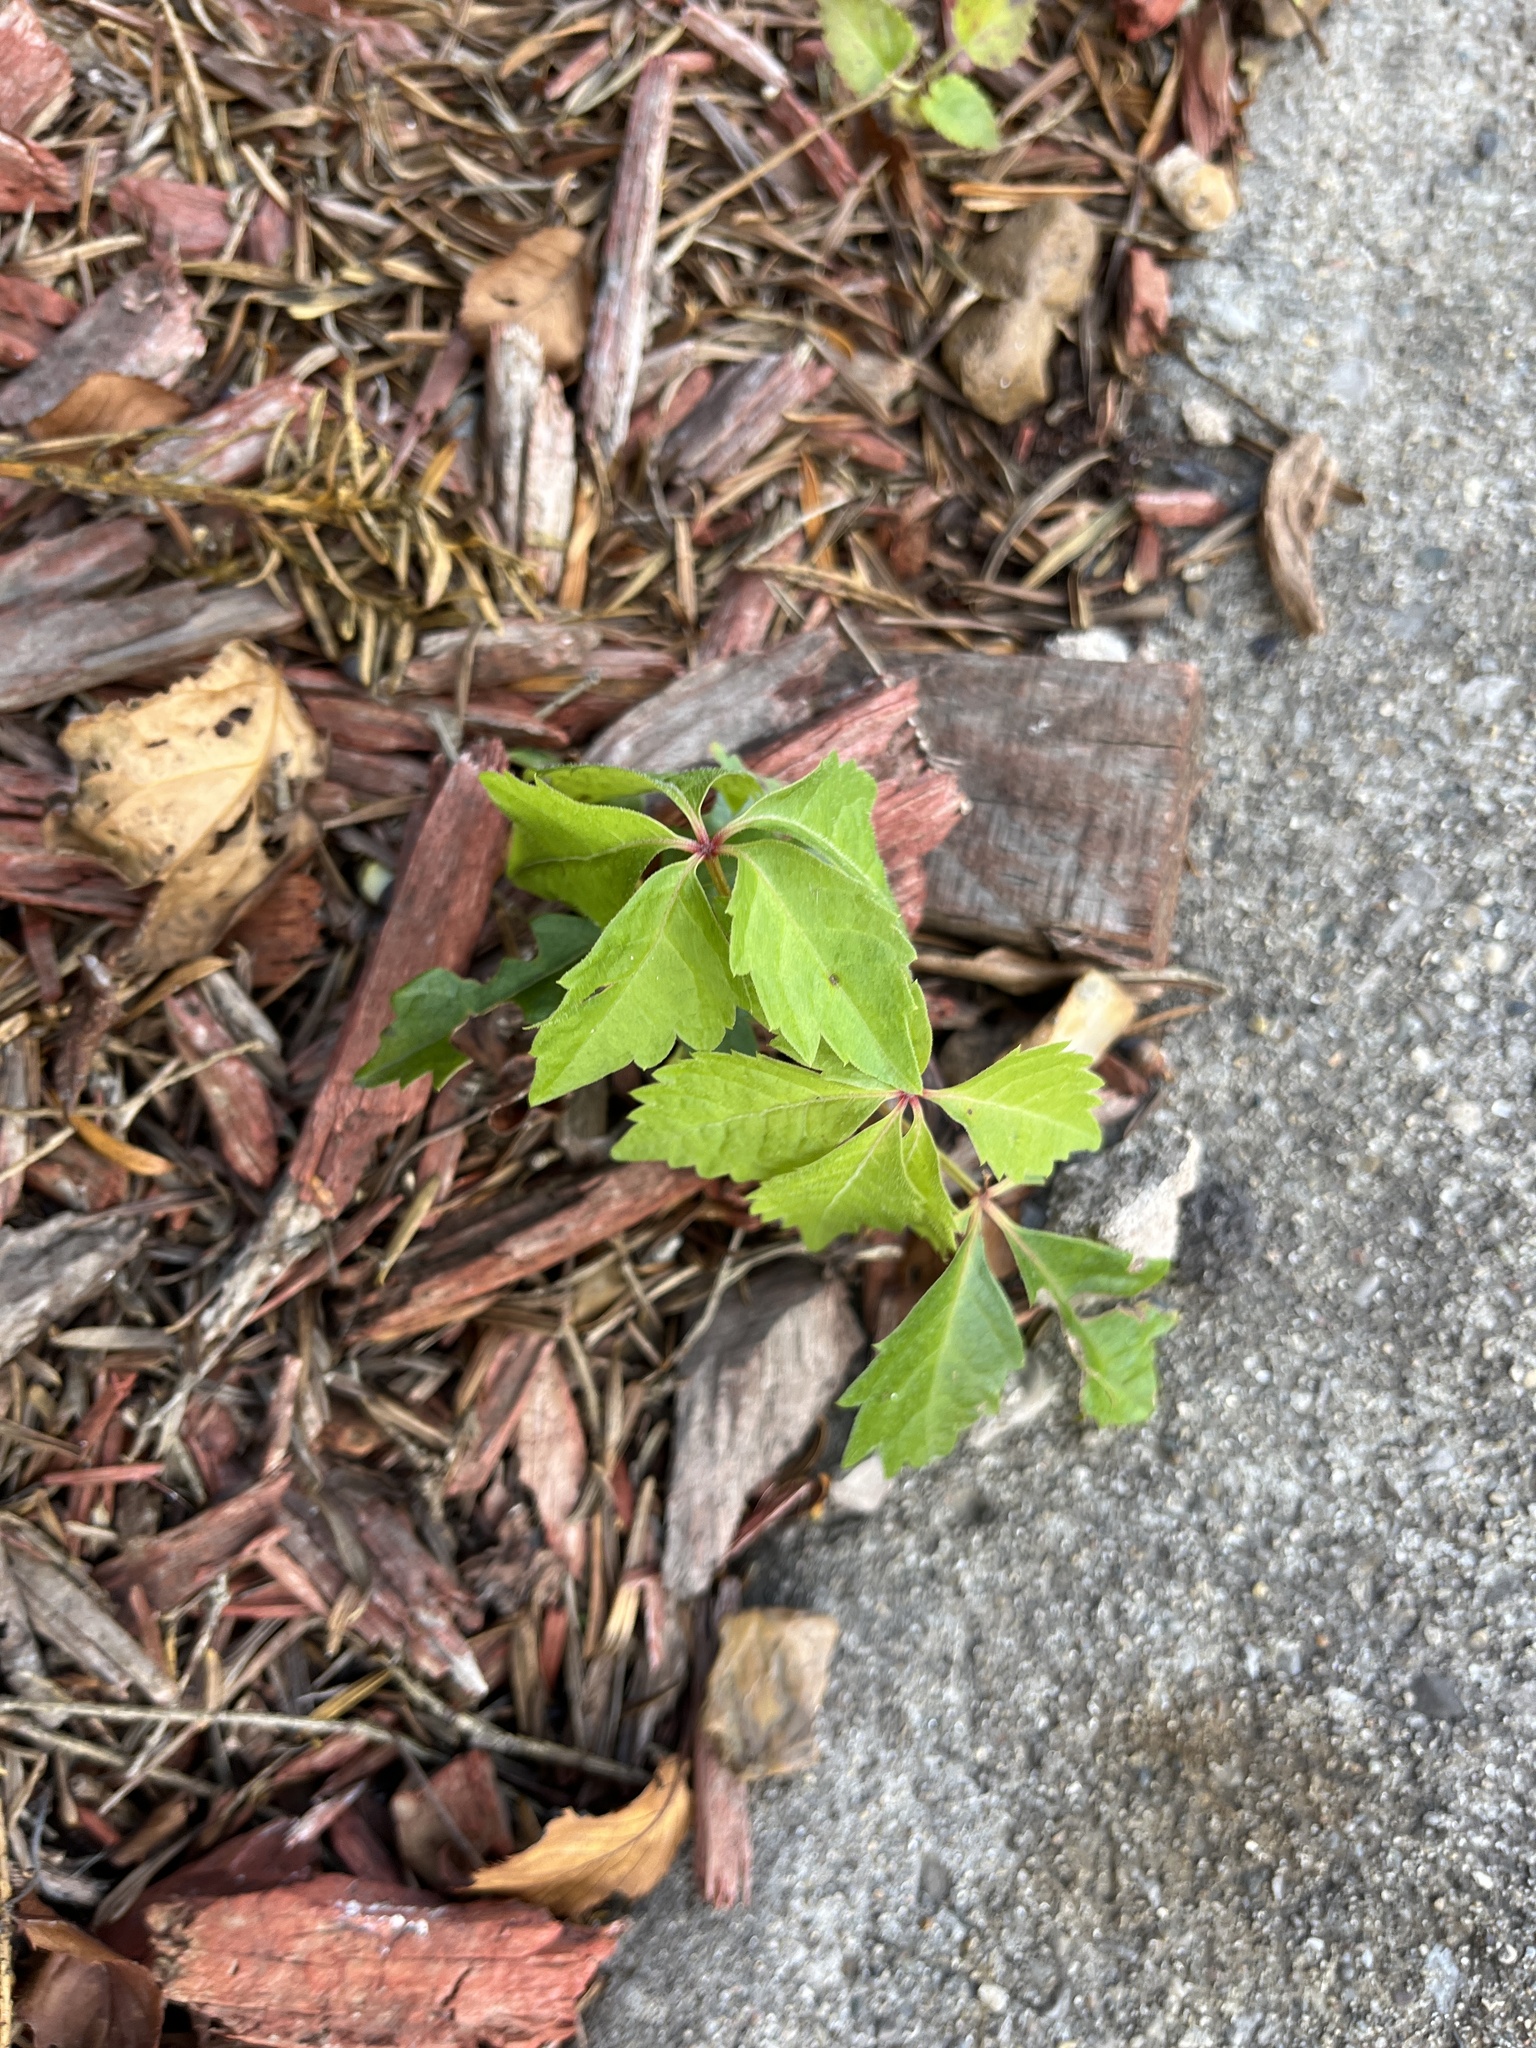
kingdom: Plantae
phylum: Tracheophyta
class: Magnoliopsida
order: Vitales
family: Vitaceae
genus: Parthenocissus
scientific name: Parthenocissus quinquefolia
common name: Virginia-creeper
